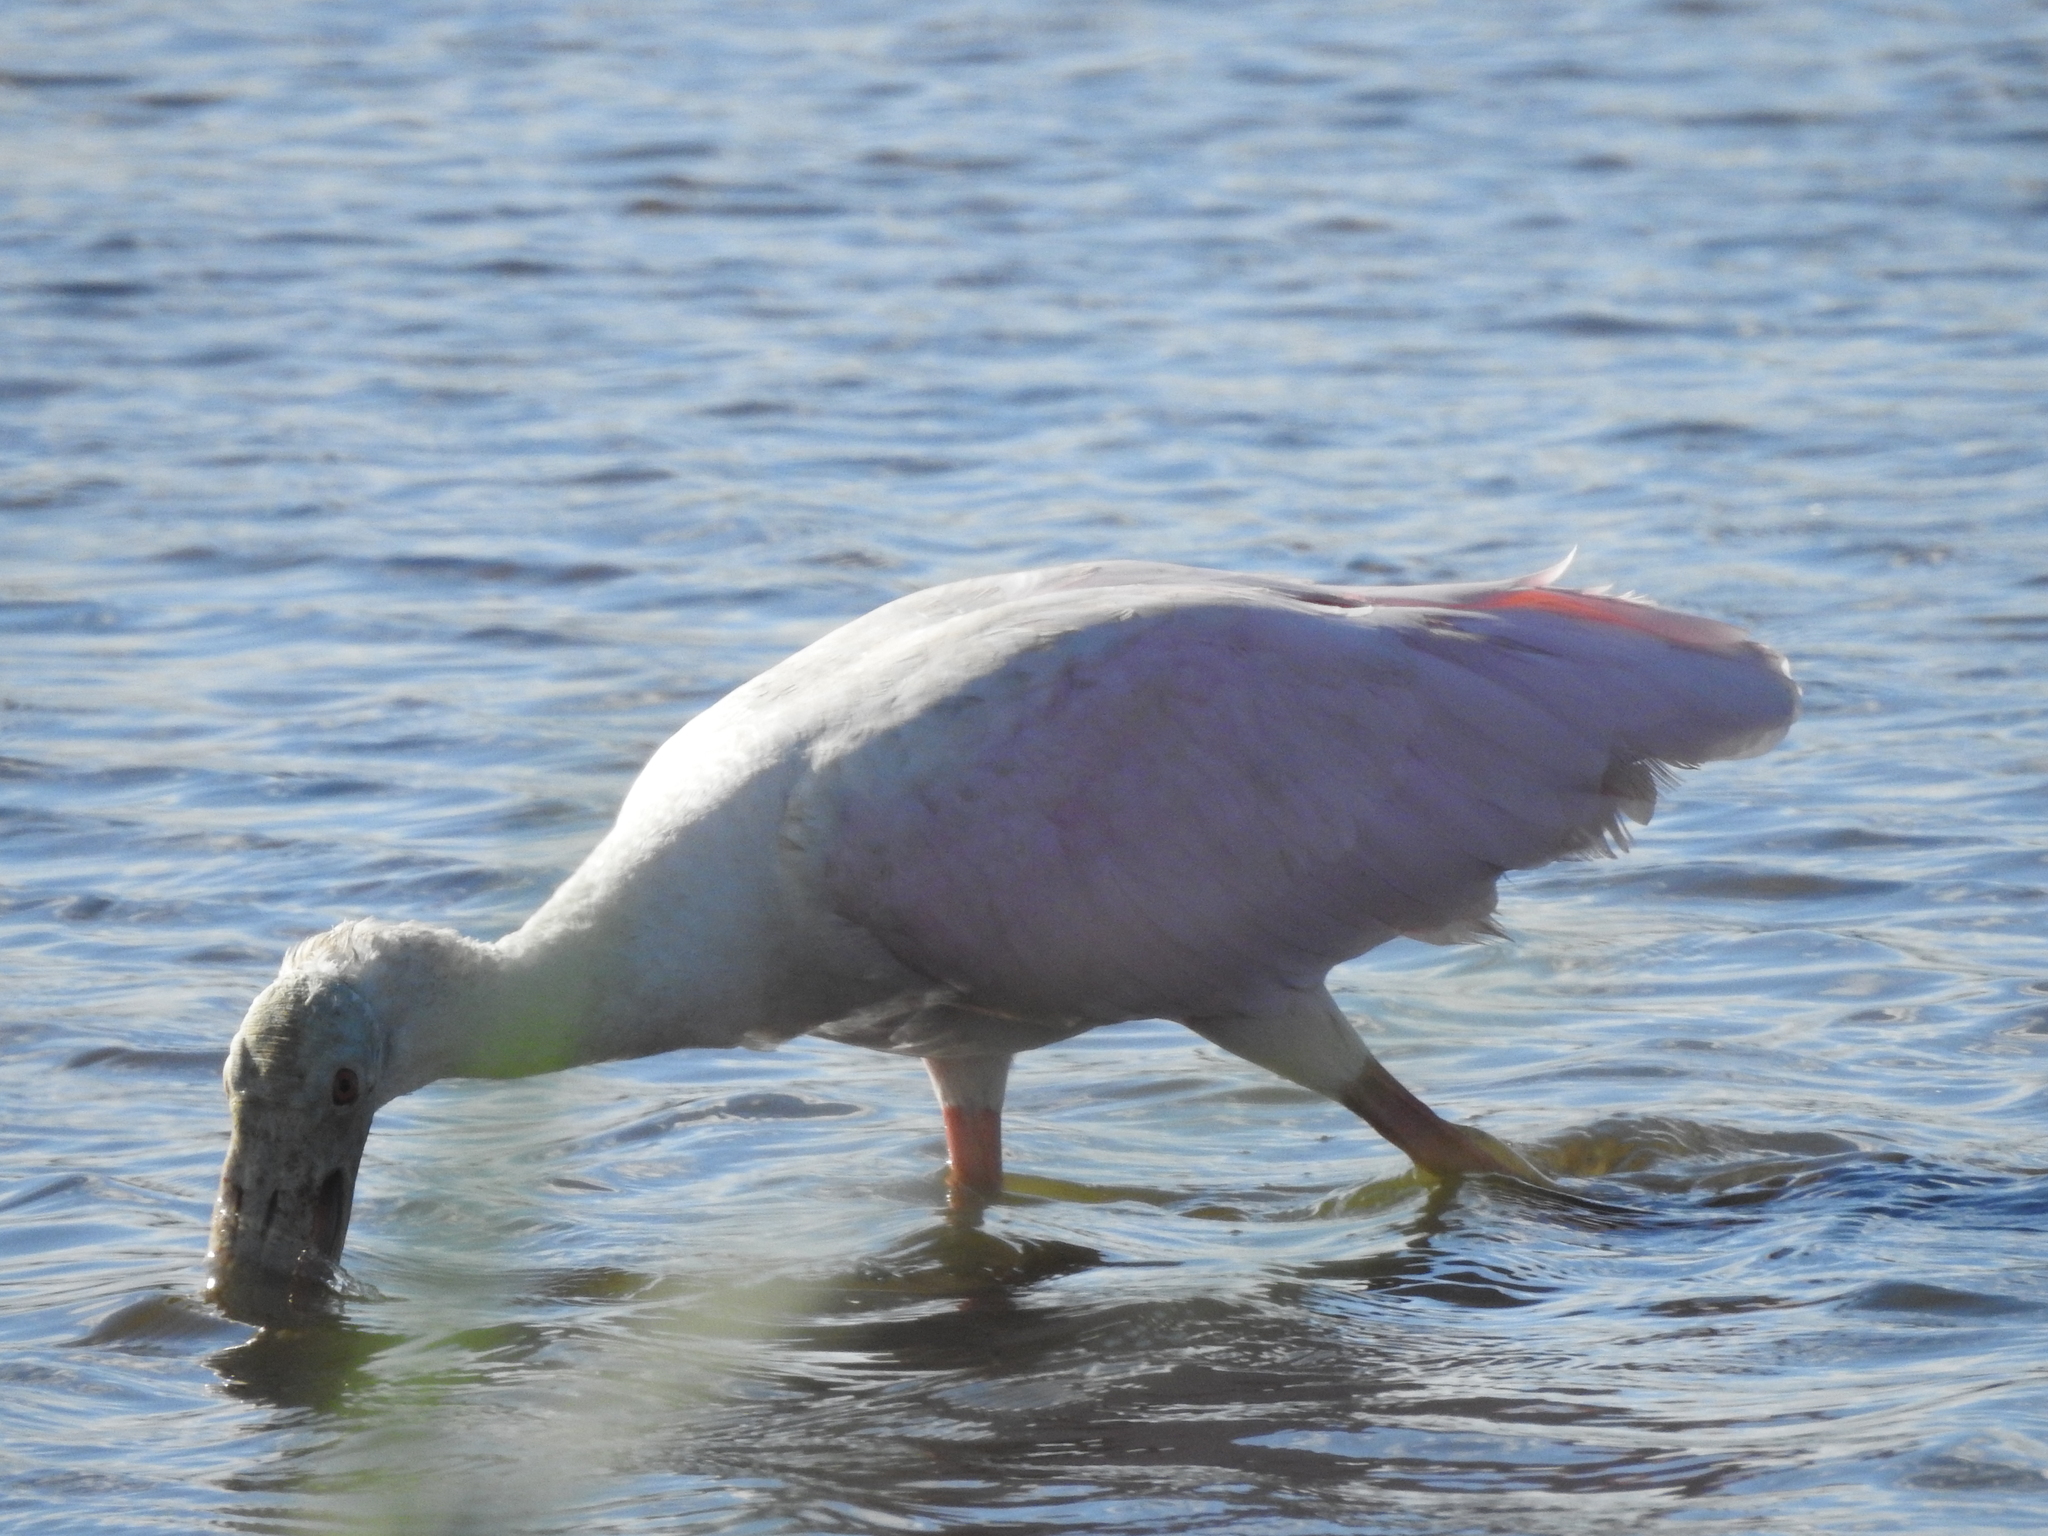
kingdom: Animalia
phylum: Chordata
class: Aves
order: Pelecaniformes
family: Threskiornithidae
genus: Platalea
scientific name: Platalea ajaja
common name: Roseate spoonbill
